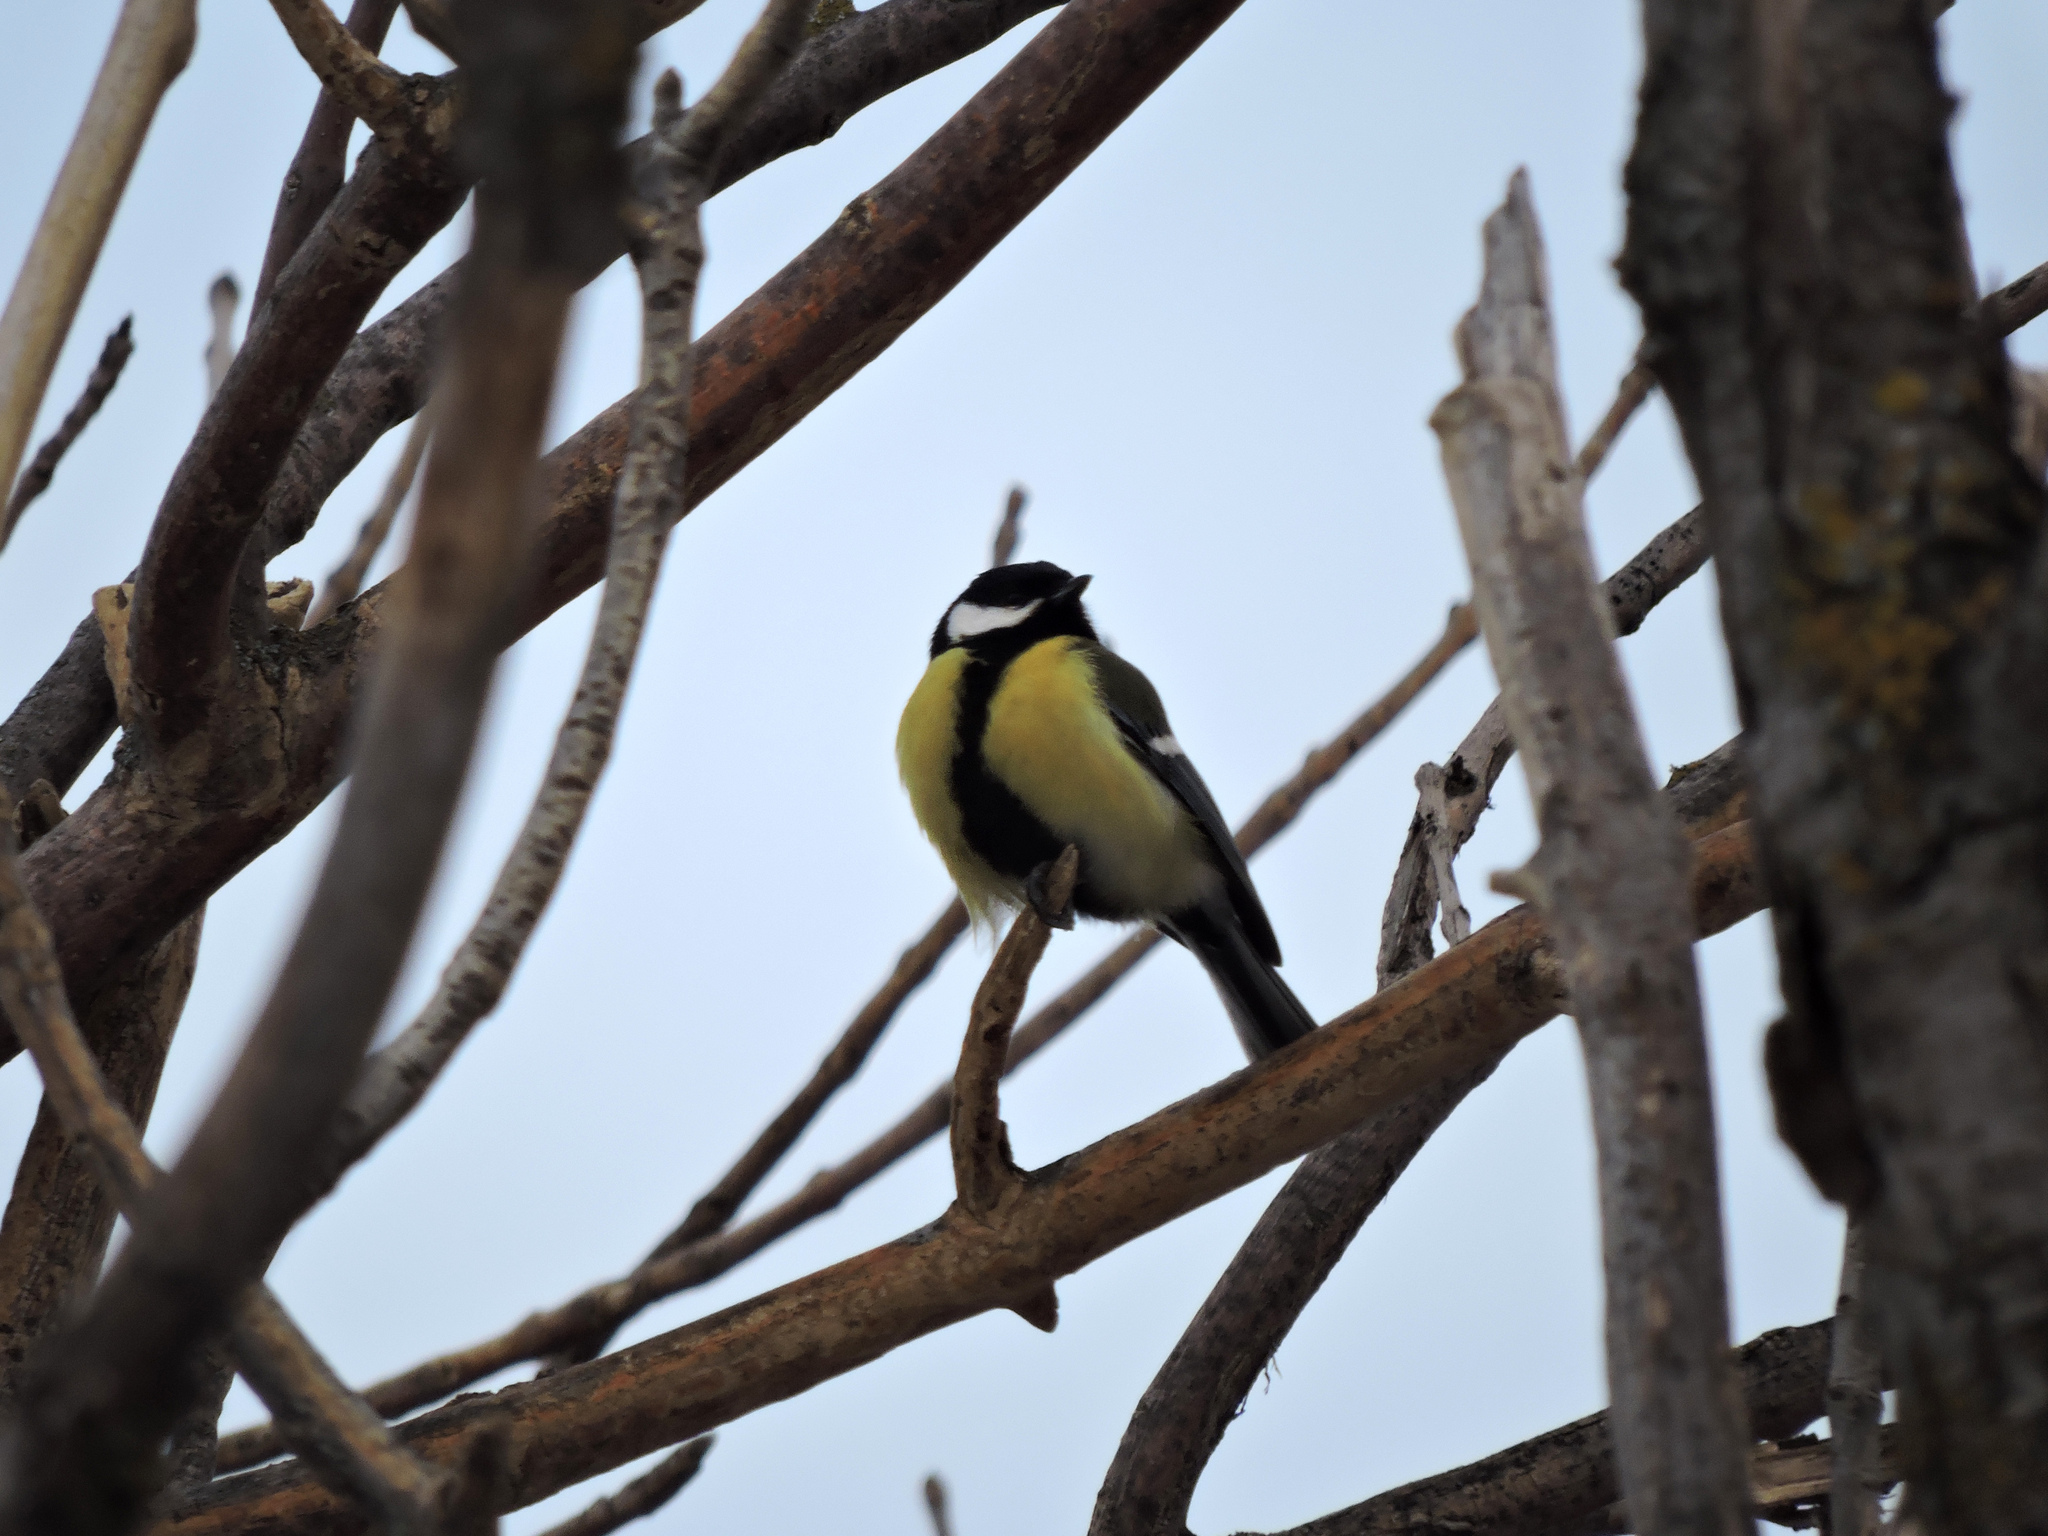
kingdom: Animalia
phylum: Chordata
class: Aves
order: Passeriformes
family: Paridae
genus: Parus
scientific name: Parus major
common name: Great tit
